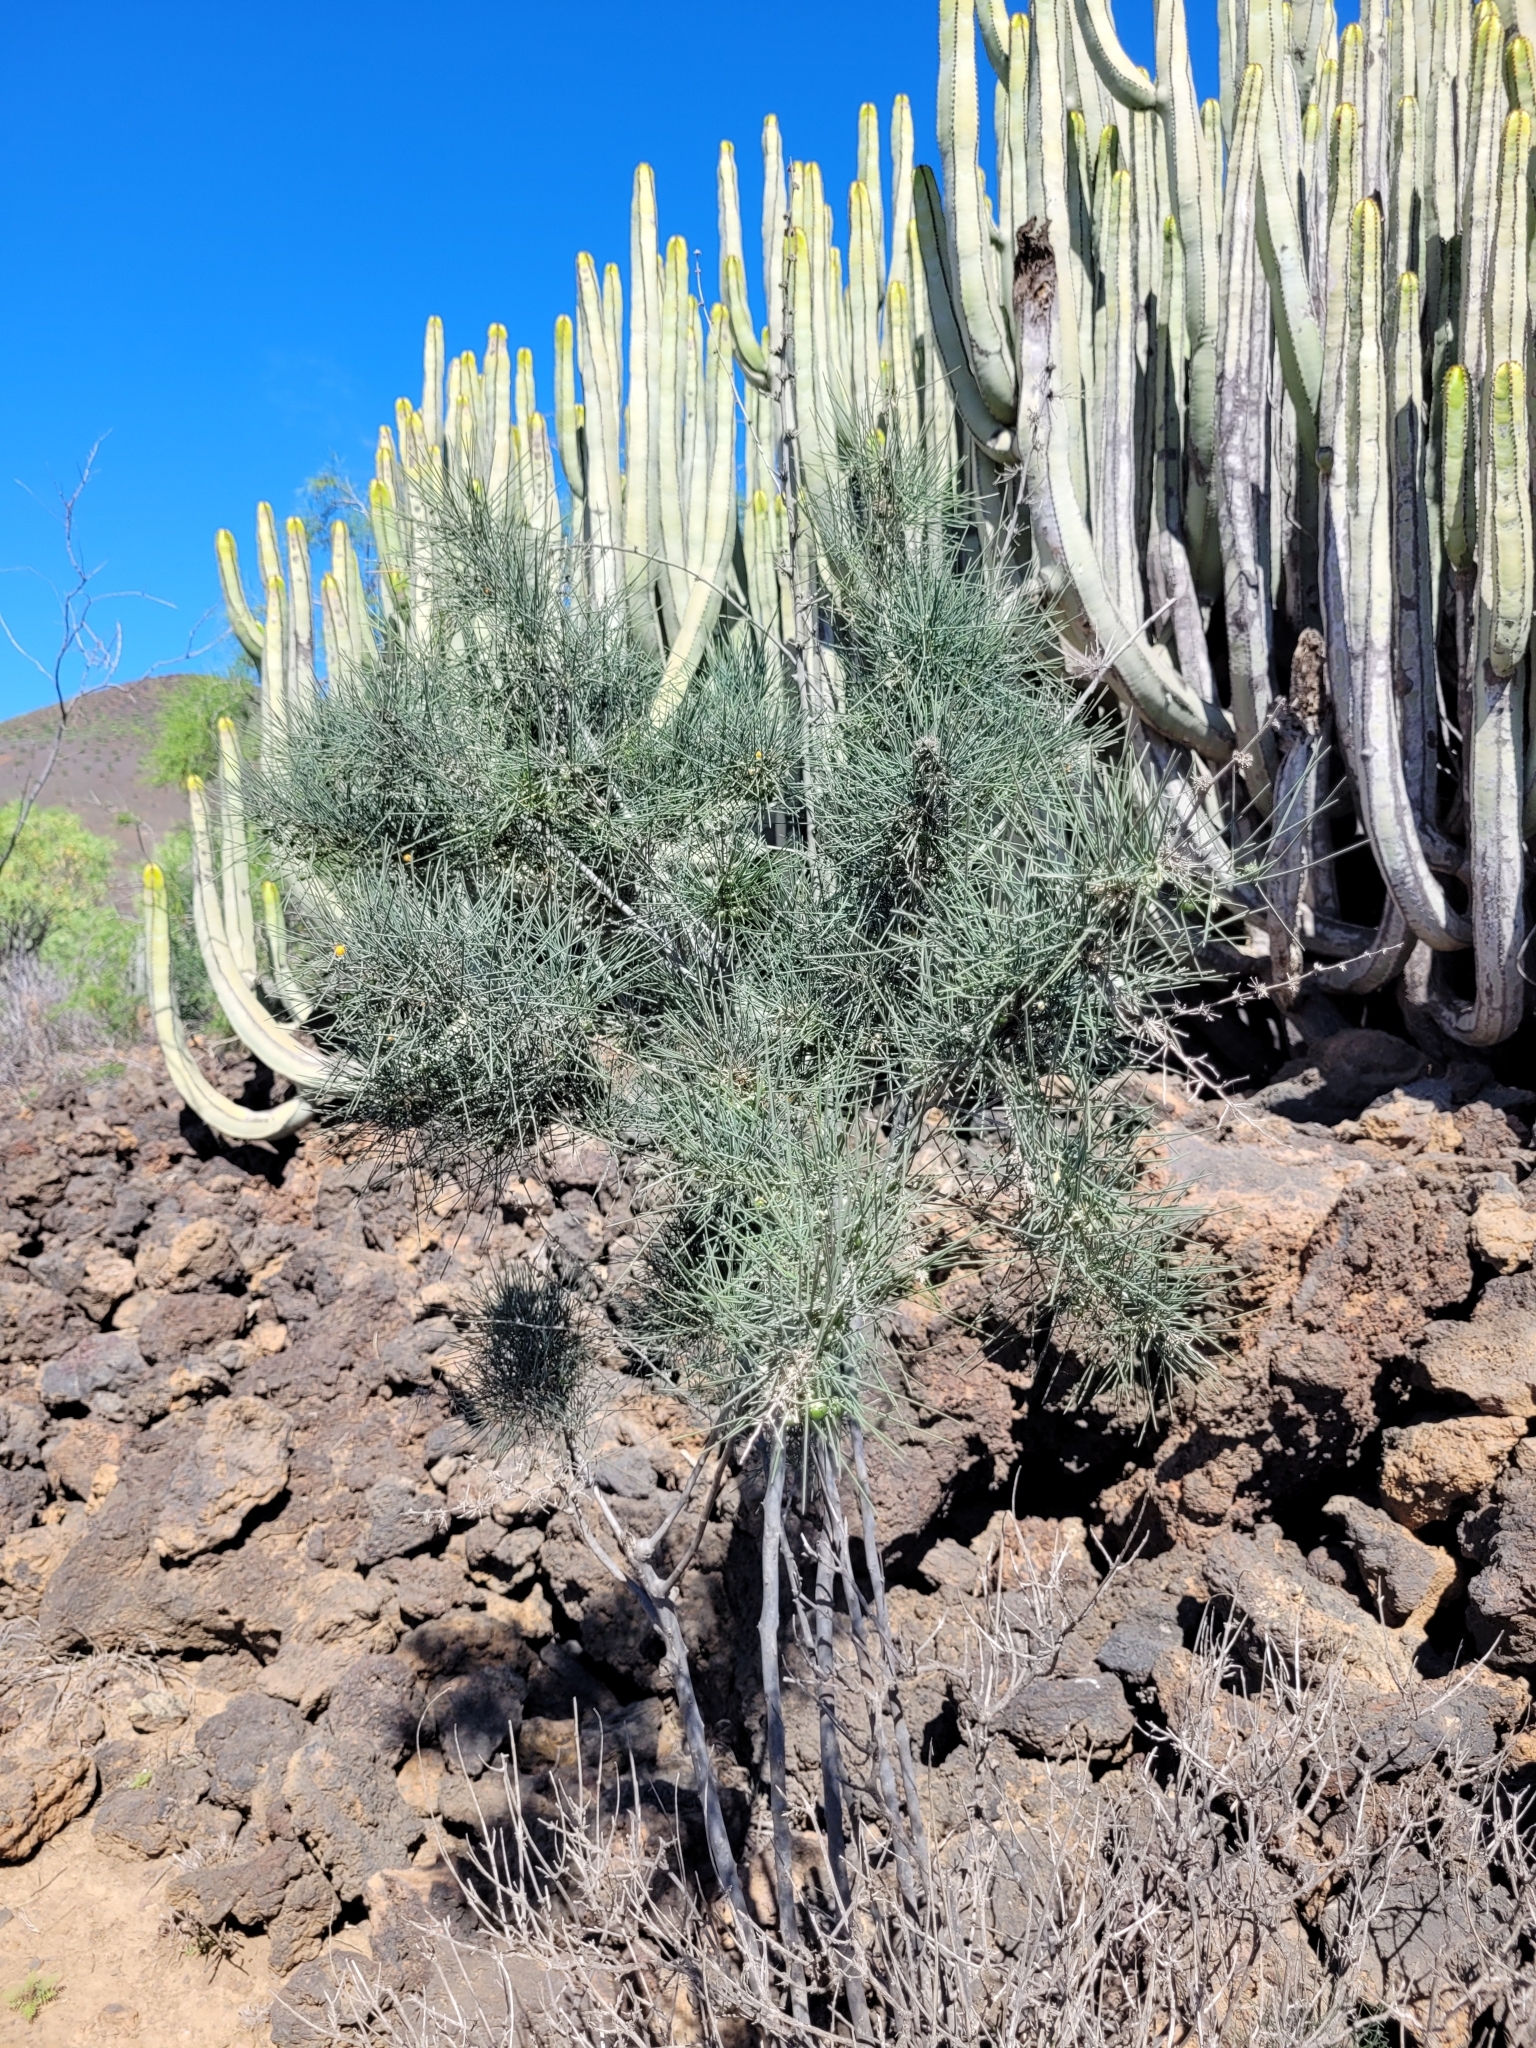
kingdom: Plantae
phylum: Tracheophyta
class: Liliopsida
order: Asparagales
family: Asparagaceae
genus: Asparagus
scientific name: Asparagus arborescens
